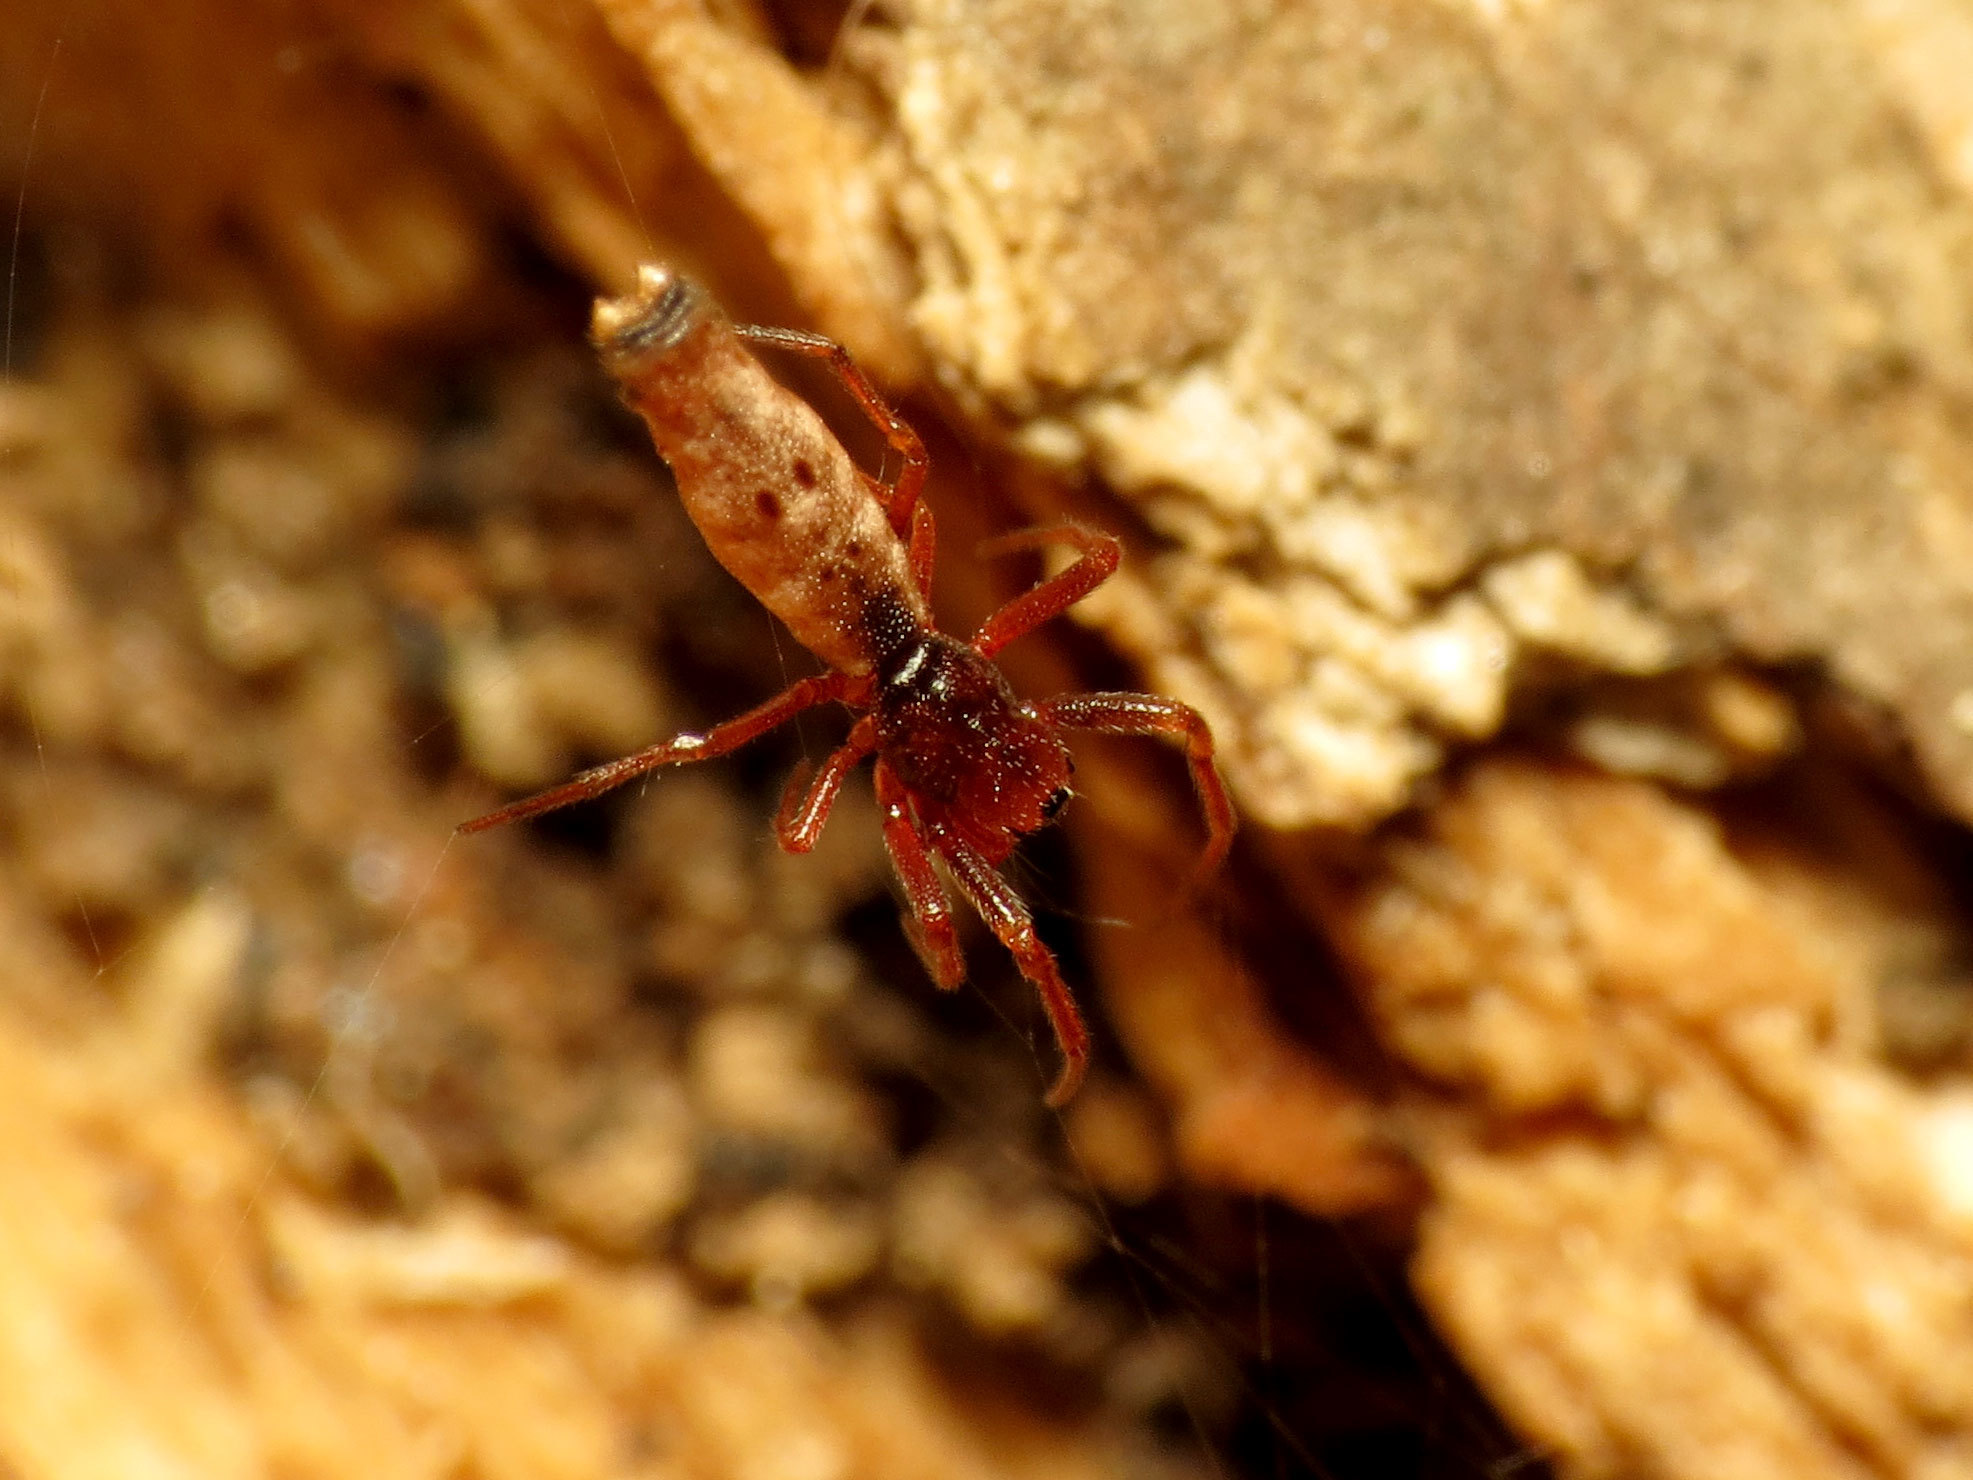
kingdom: Animalia
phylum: Arthropoda
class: Arachnida
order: Araneae
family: Araneidae
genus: Micrathena
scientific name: Micrathena gracilis
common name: Orb weavers
